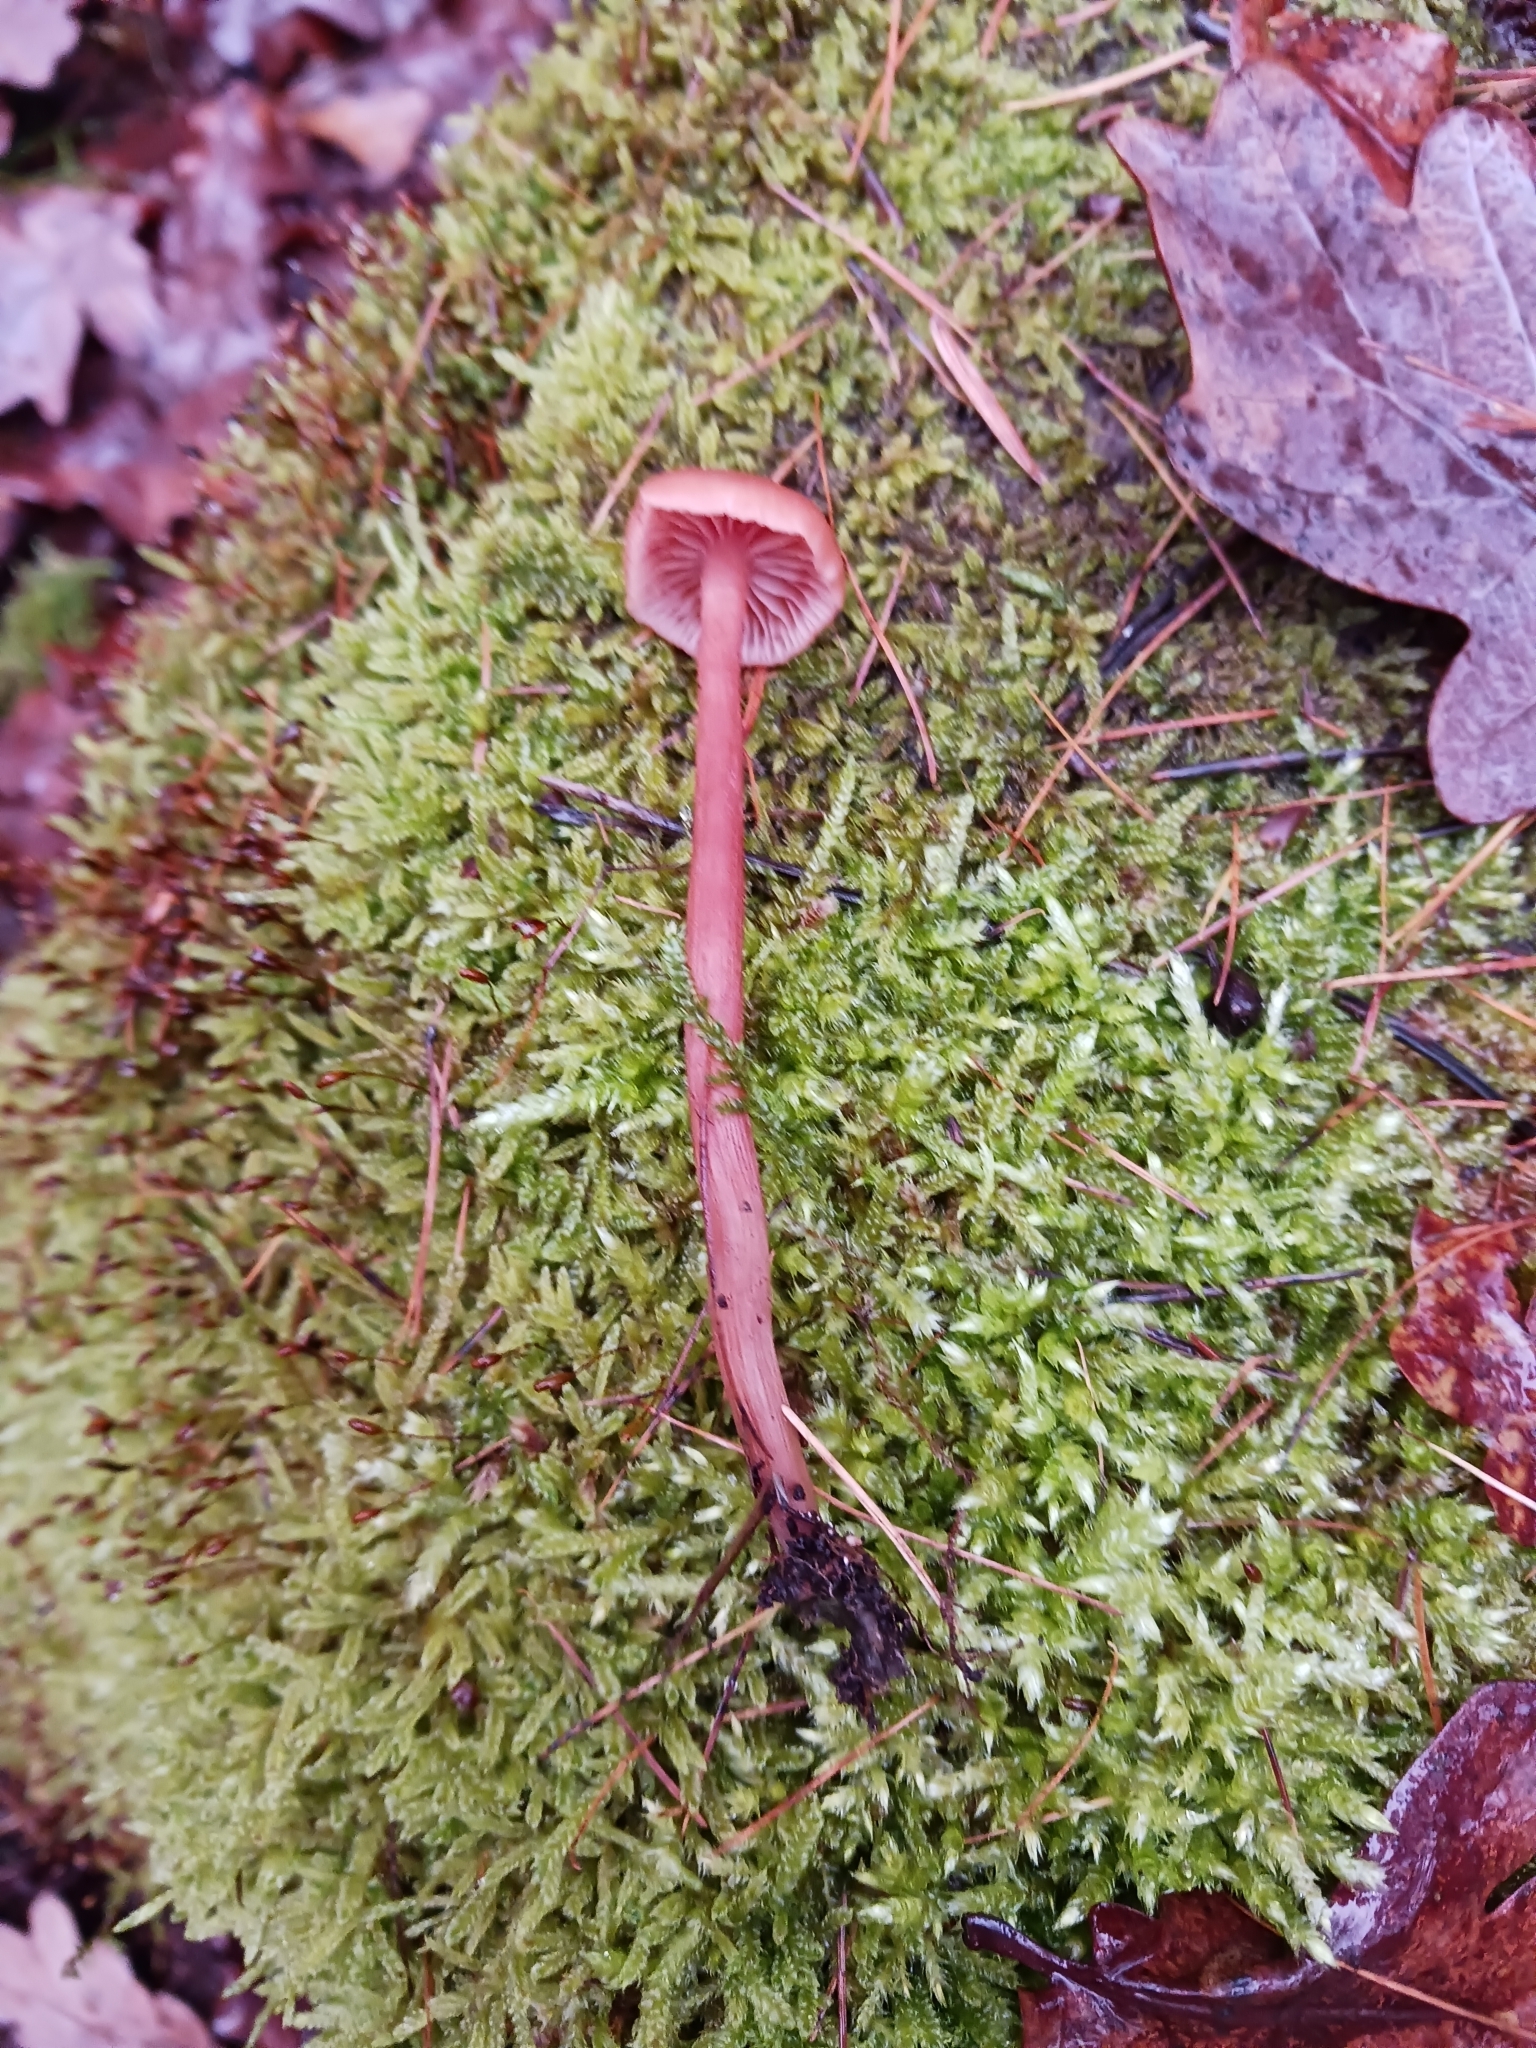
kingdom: Fungi
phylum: Basidiomycota
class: Agaricomycetes
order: Agaricales
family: Hydnangiaceae
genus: Laccaria
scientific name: Laccaria laccata
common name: Deceiver
